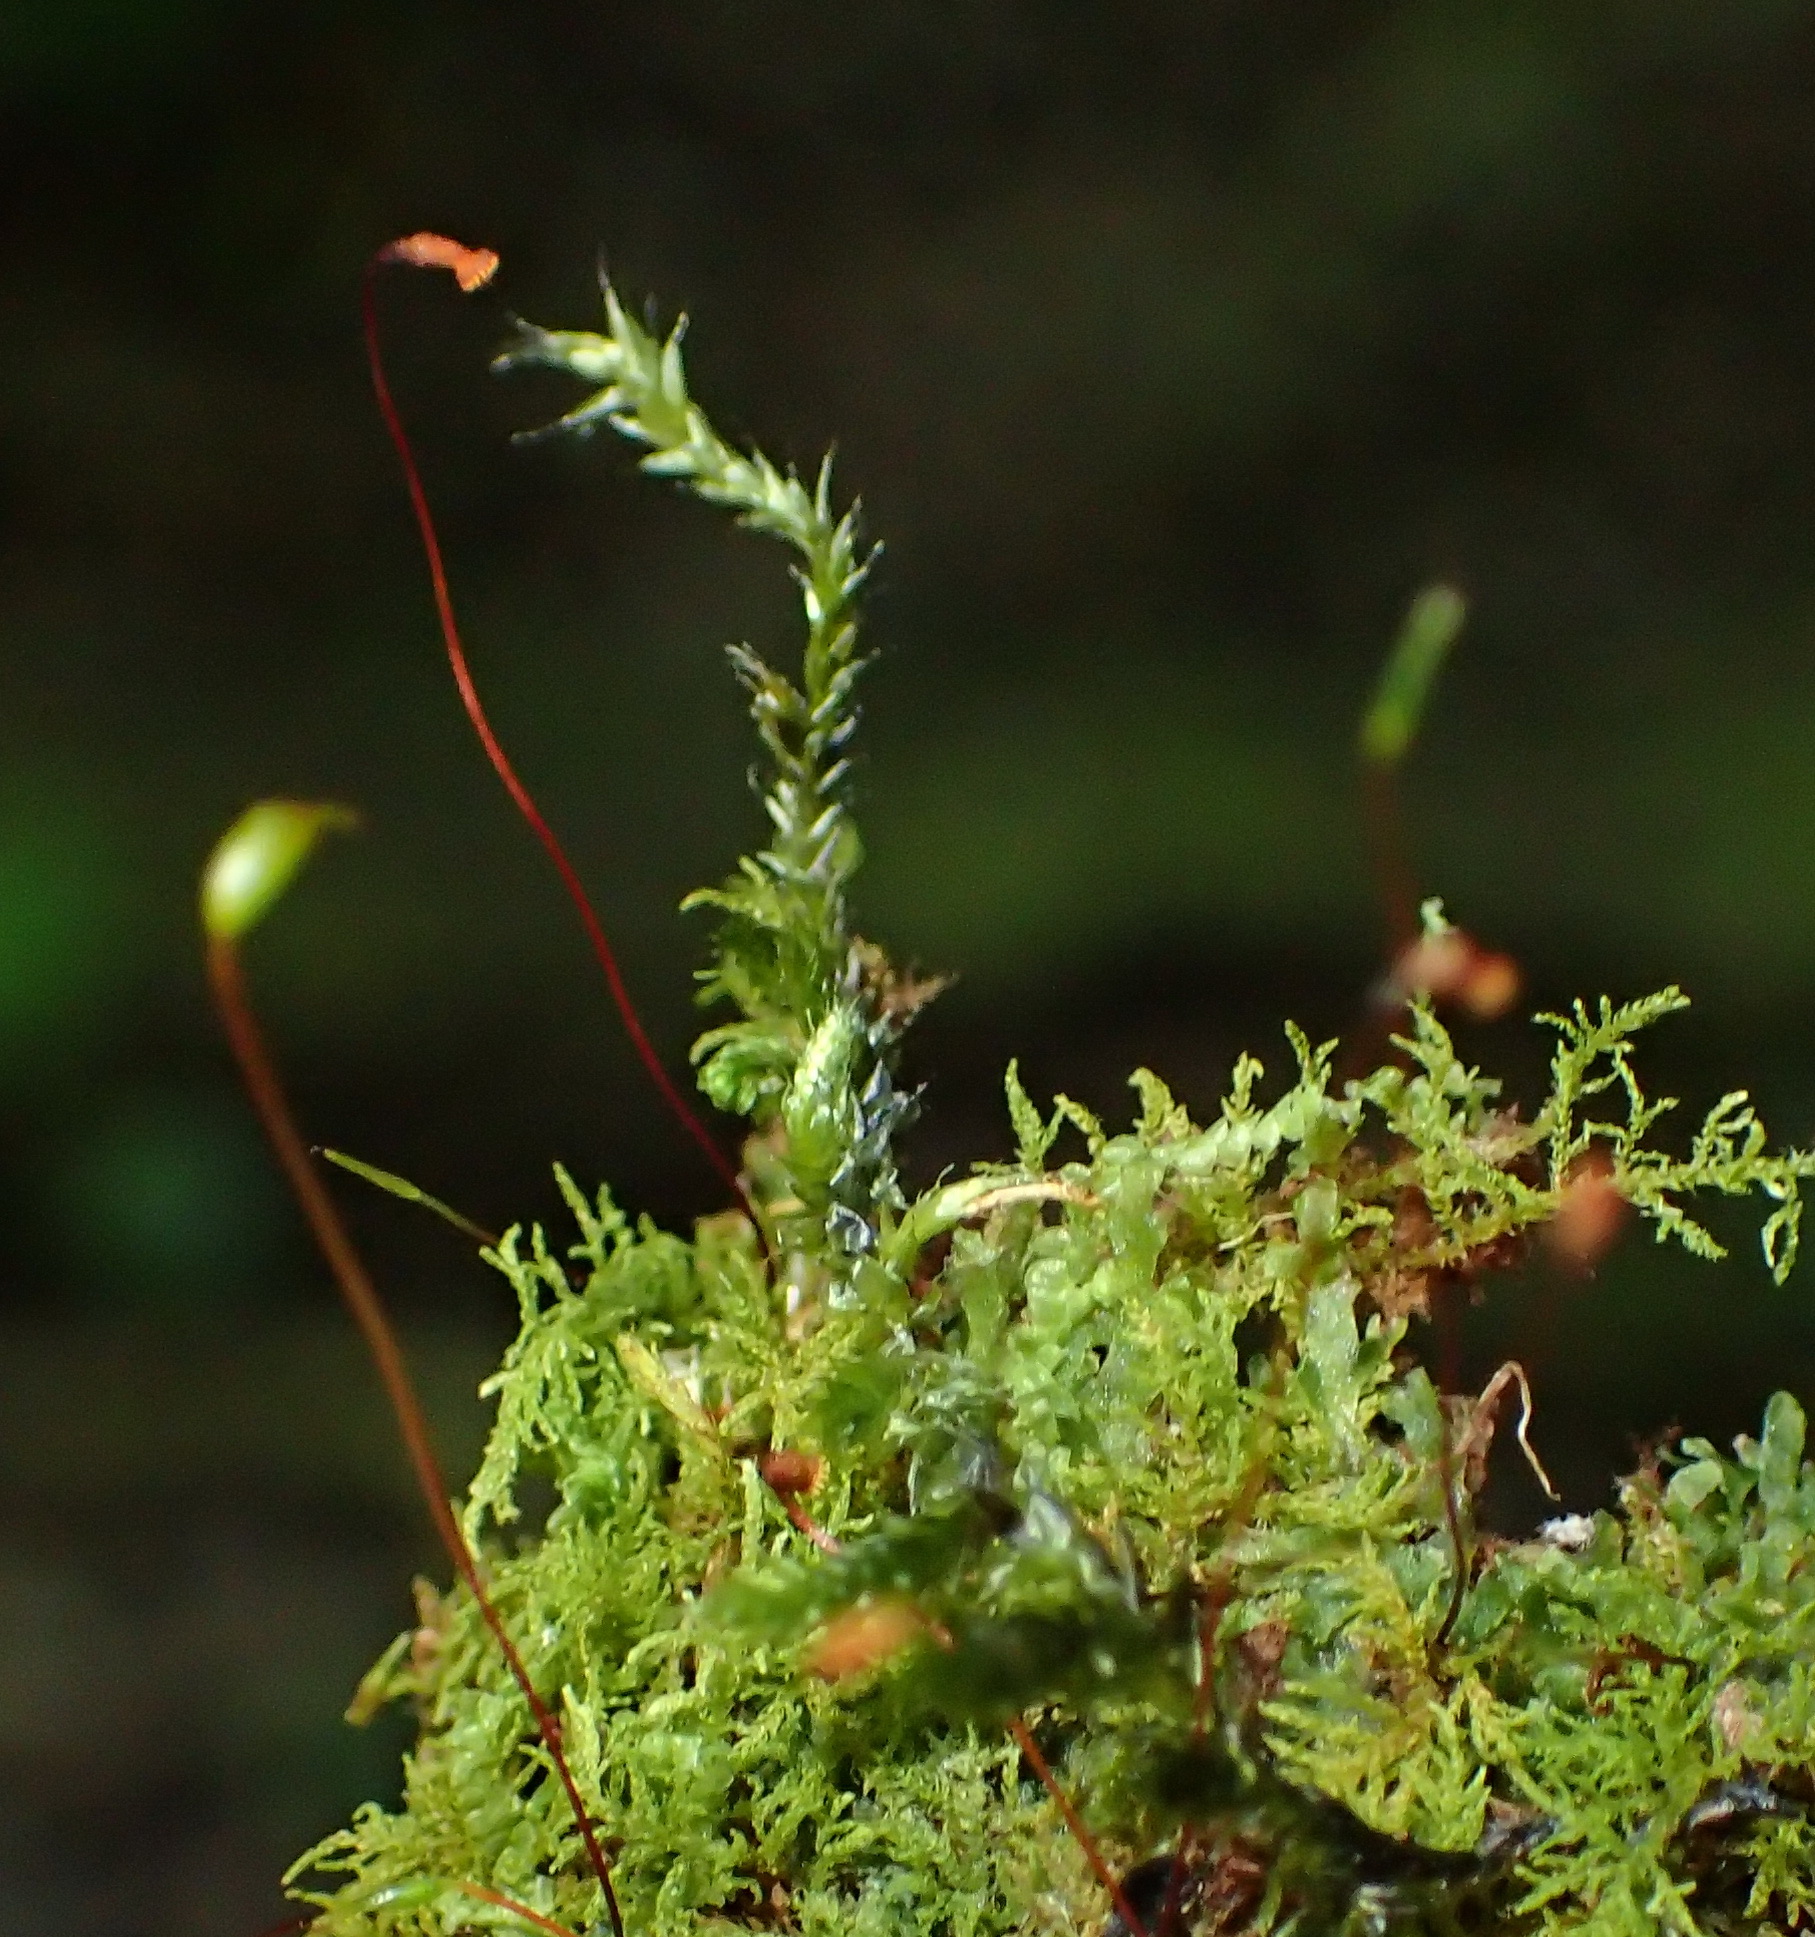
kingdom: Plantae
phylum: Bryophyta
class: Bryopsida
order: Hypnales
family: Thuidiaceae
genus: Pelekium
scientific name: Pelekium versicolor
